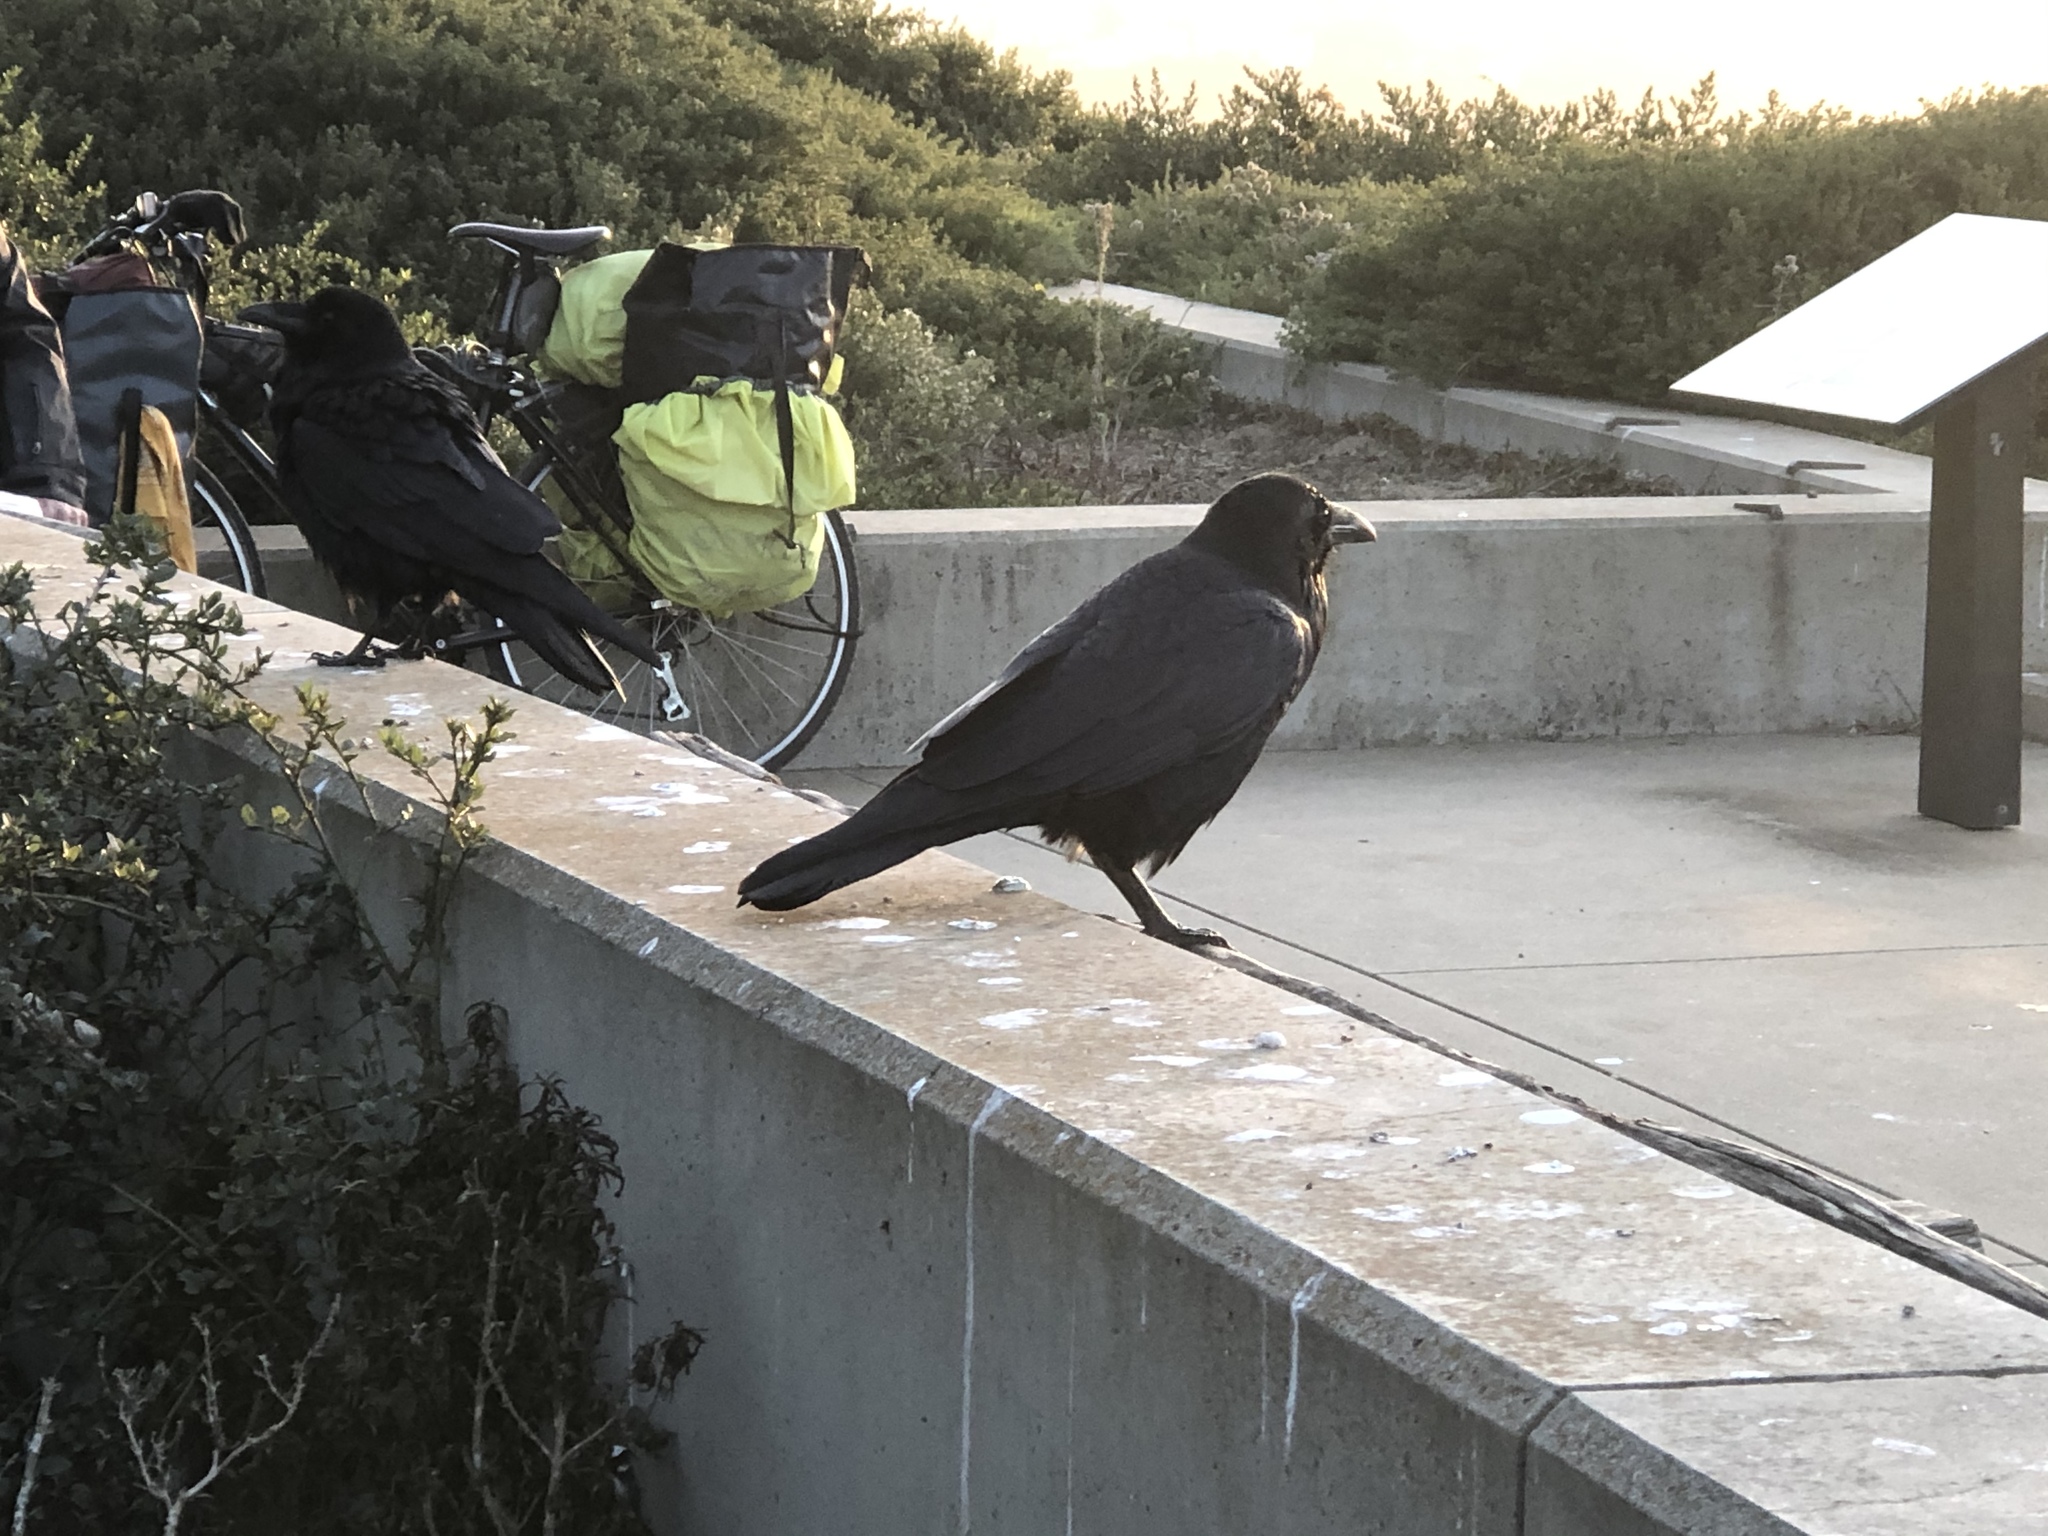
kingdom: Animalia
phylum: Chordata
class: Aves
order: Passeriformes
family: Corvidae
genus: Corvus
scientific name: Corvus corax
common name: Common raven
